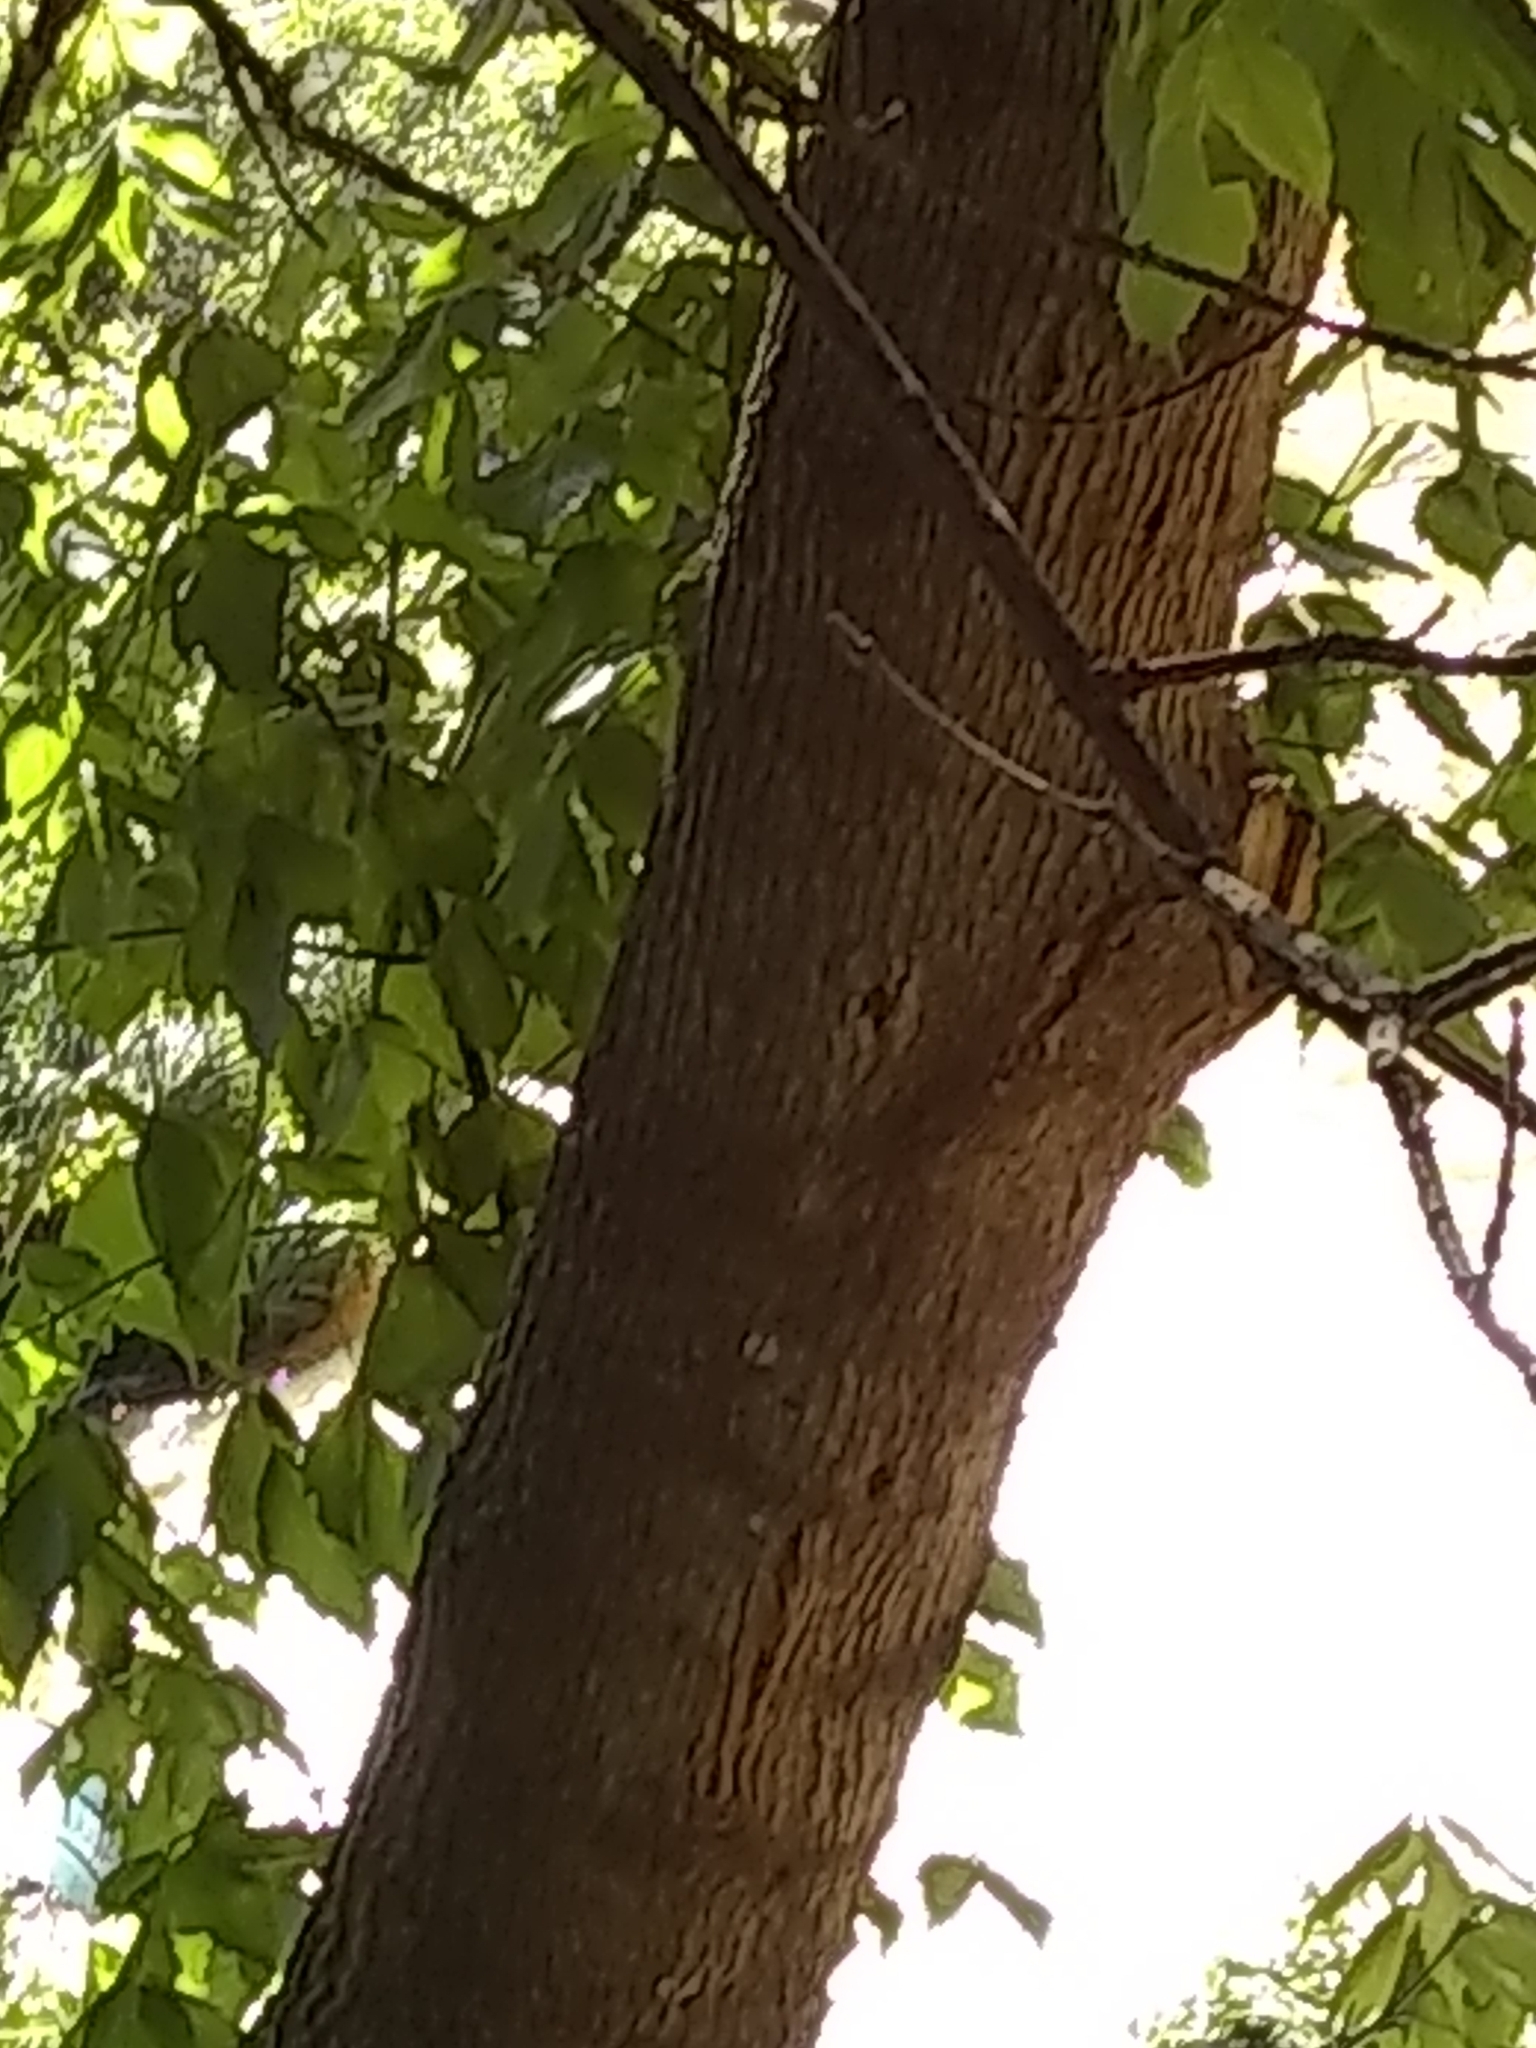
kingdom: Plantae
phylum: Tracheophyta
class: Magnoliopsida
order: Sapindales
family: Sapindaceae
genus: Acer
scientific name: Acer negundo
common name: Ashleaf maple
